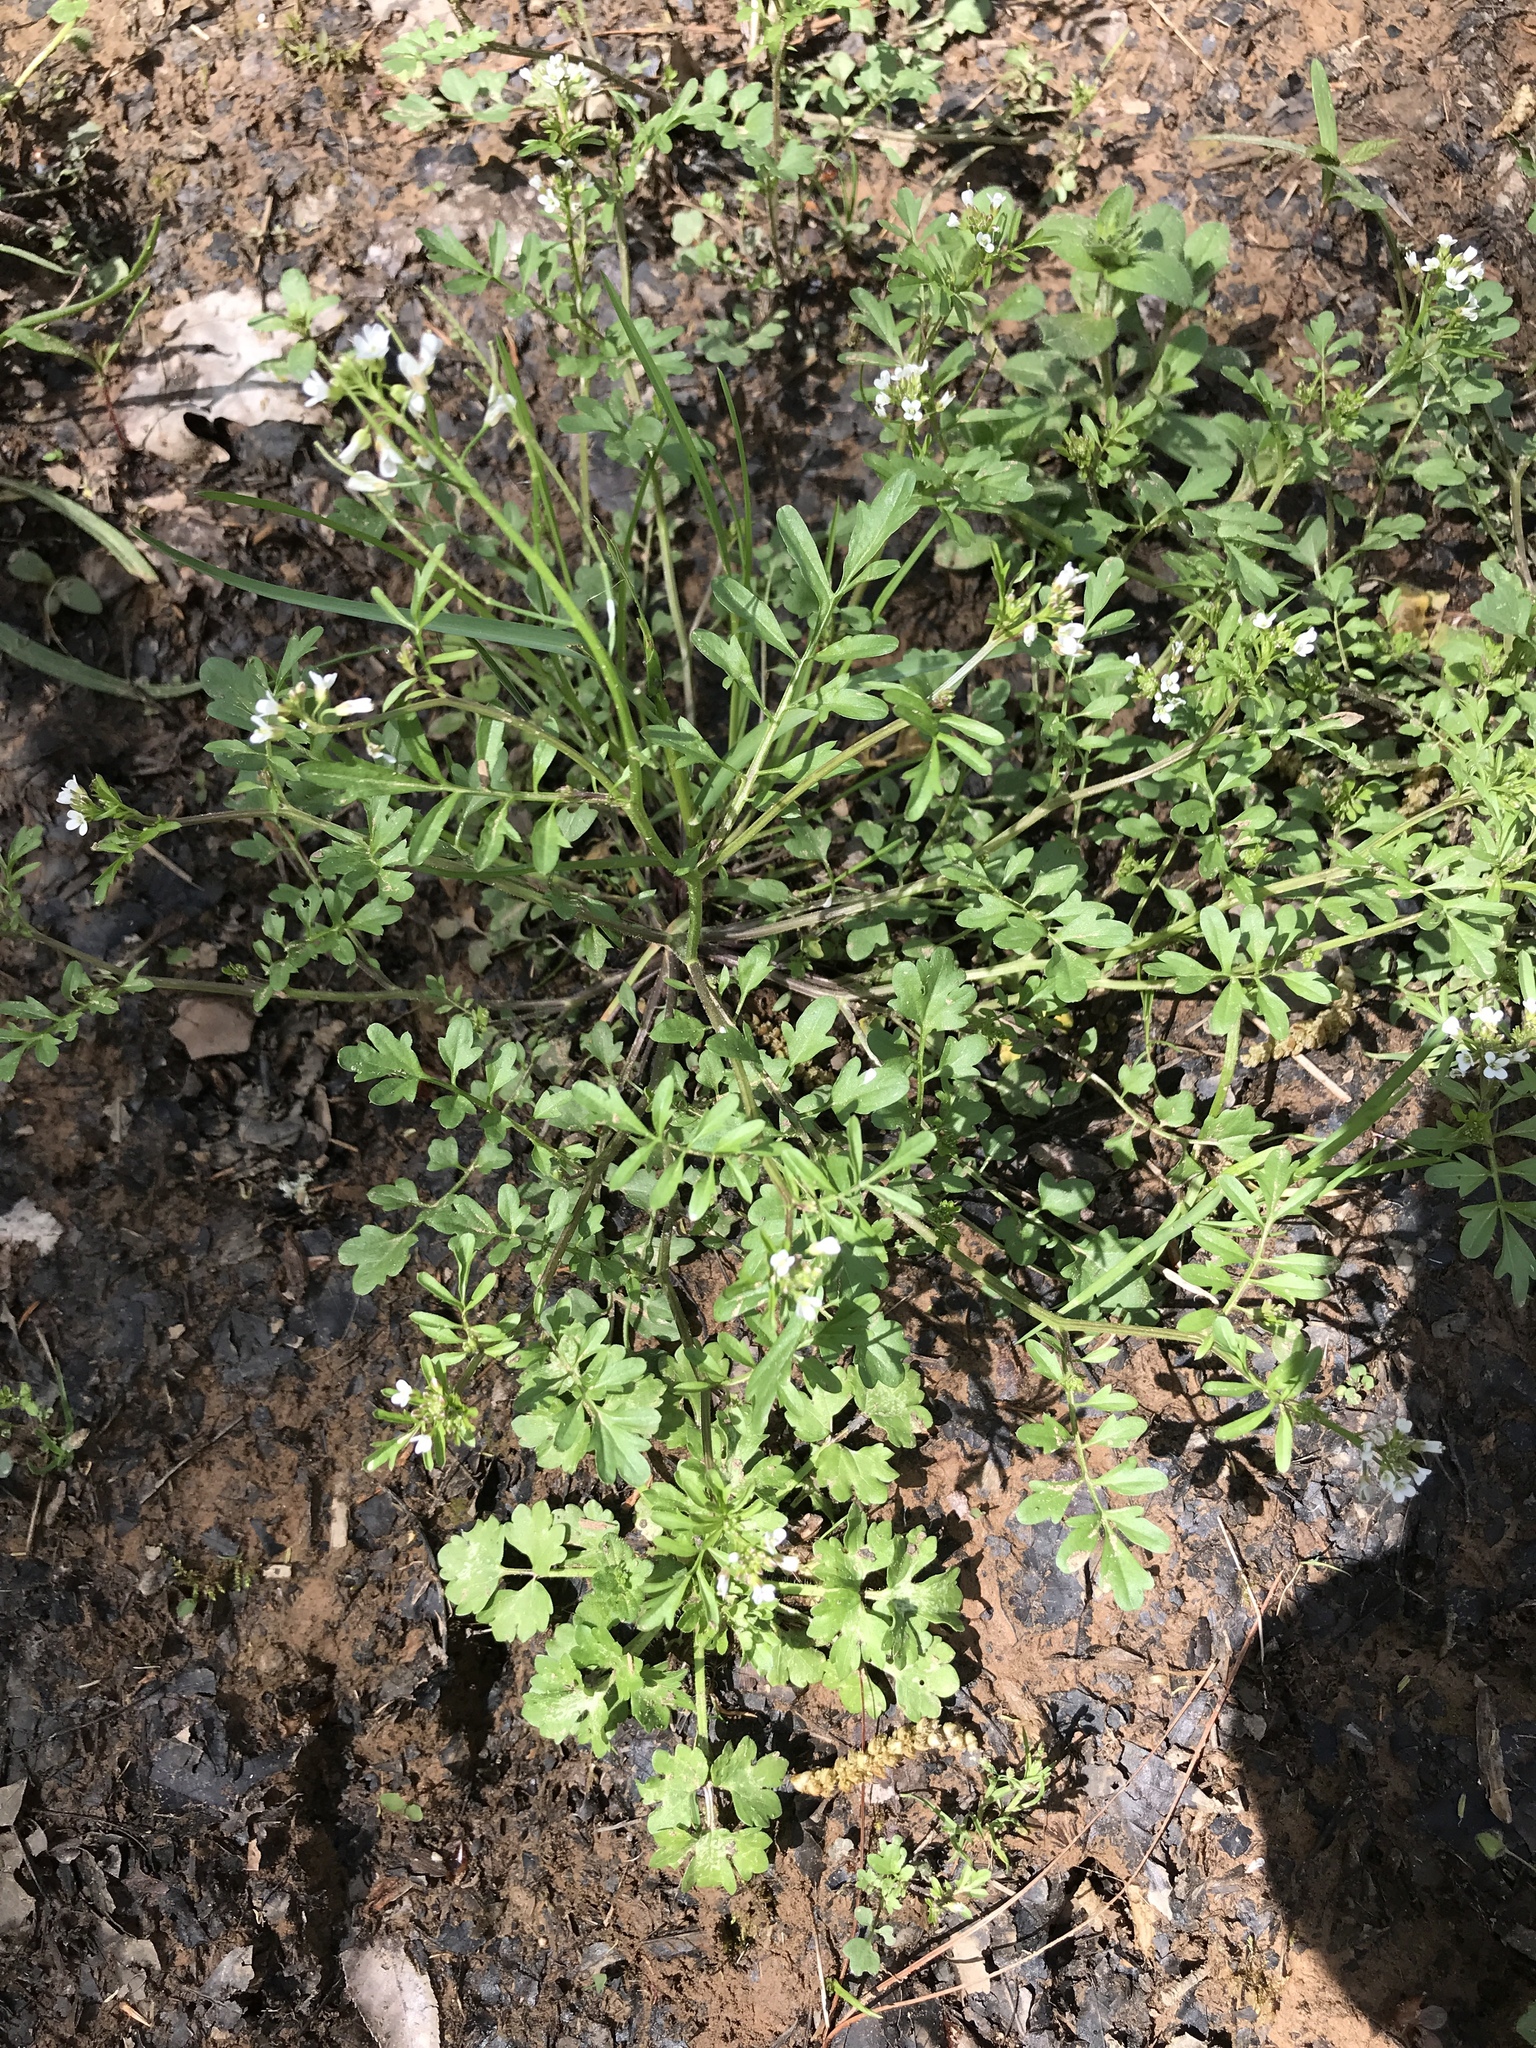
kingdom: Plantae
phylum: Tracheophyta
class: Magnoliopsida
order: Brassicales
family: Brassicaceae
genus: Cardamine
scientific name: Cardamine hirsuta
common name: Hairy bittercress
